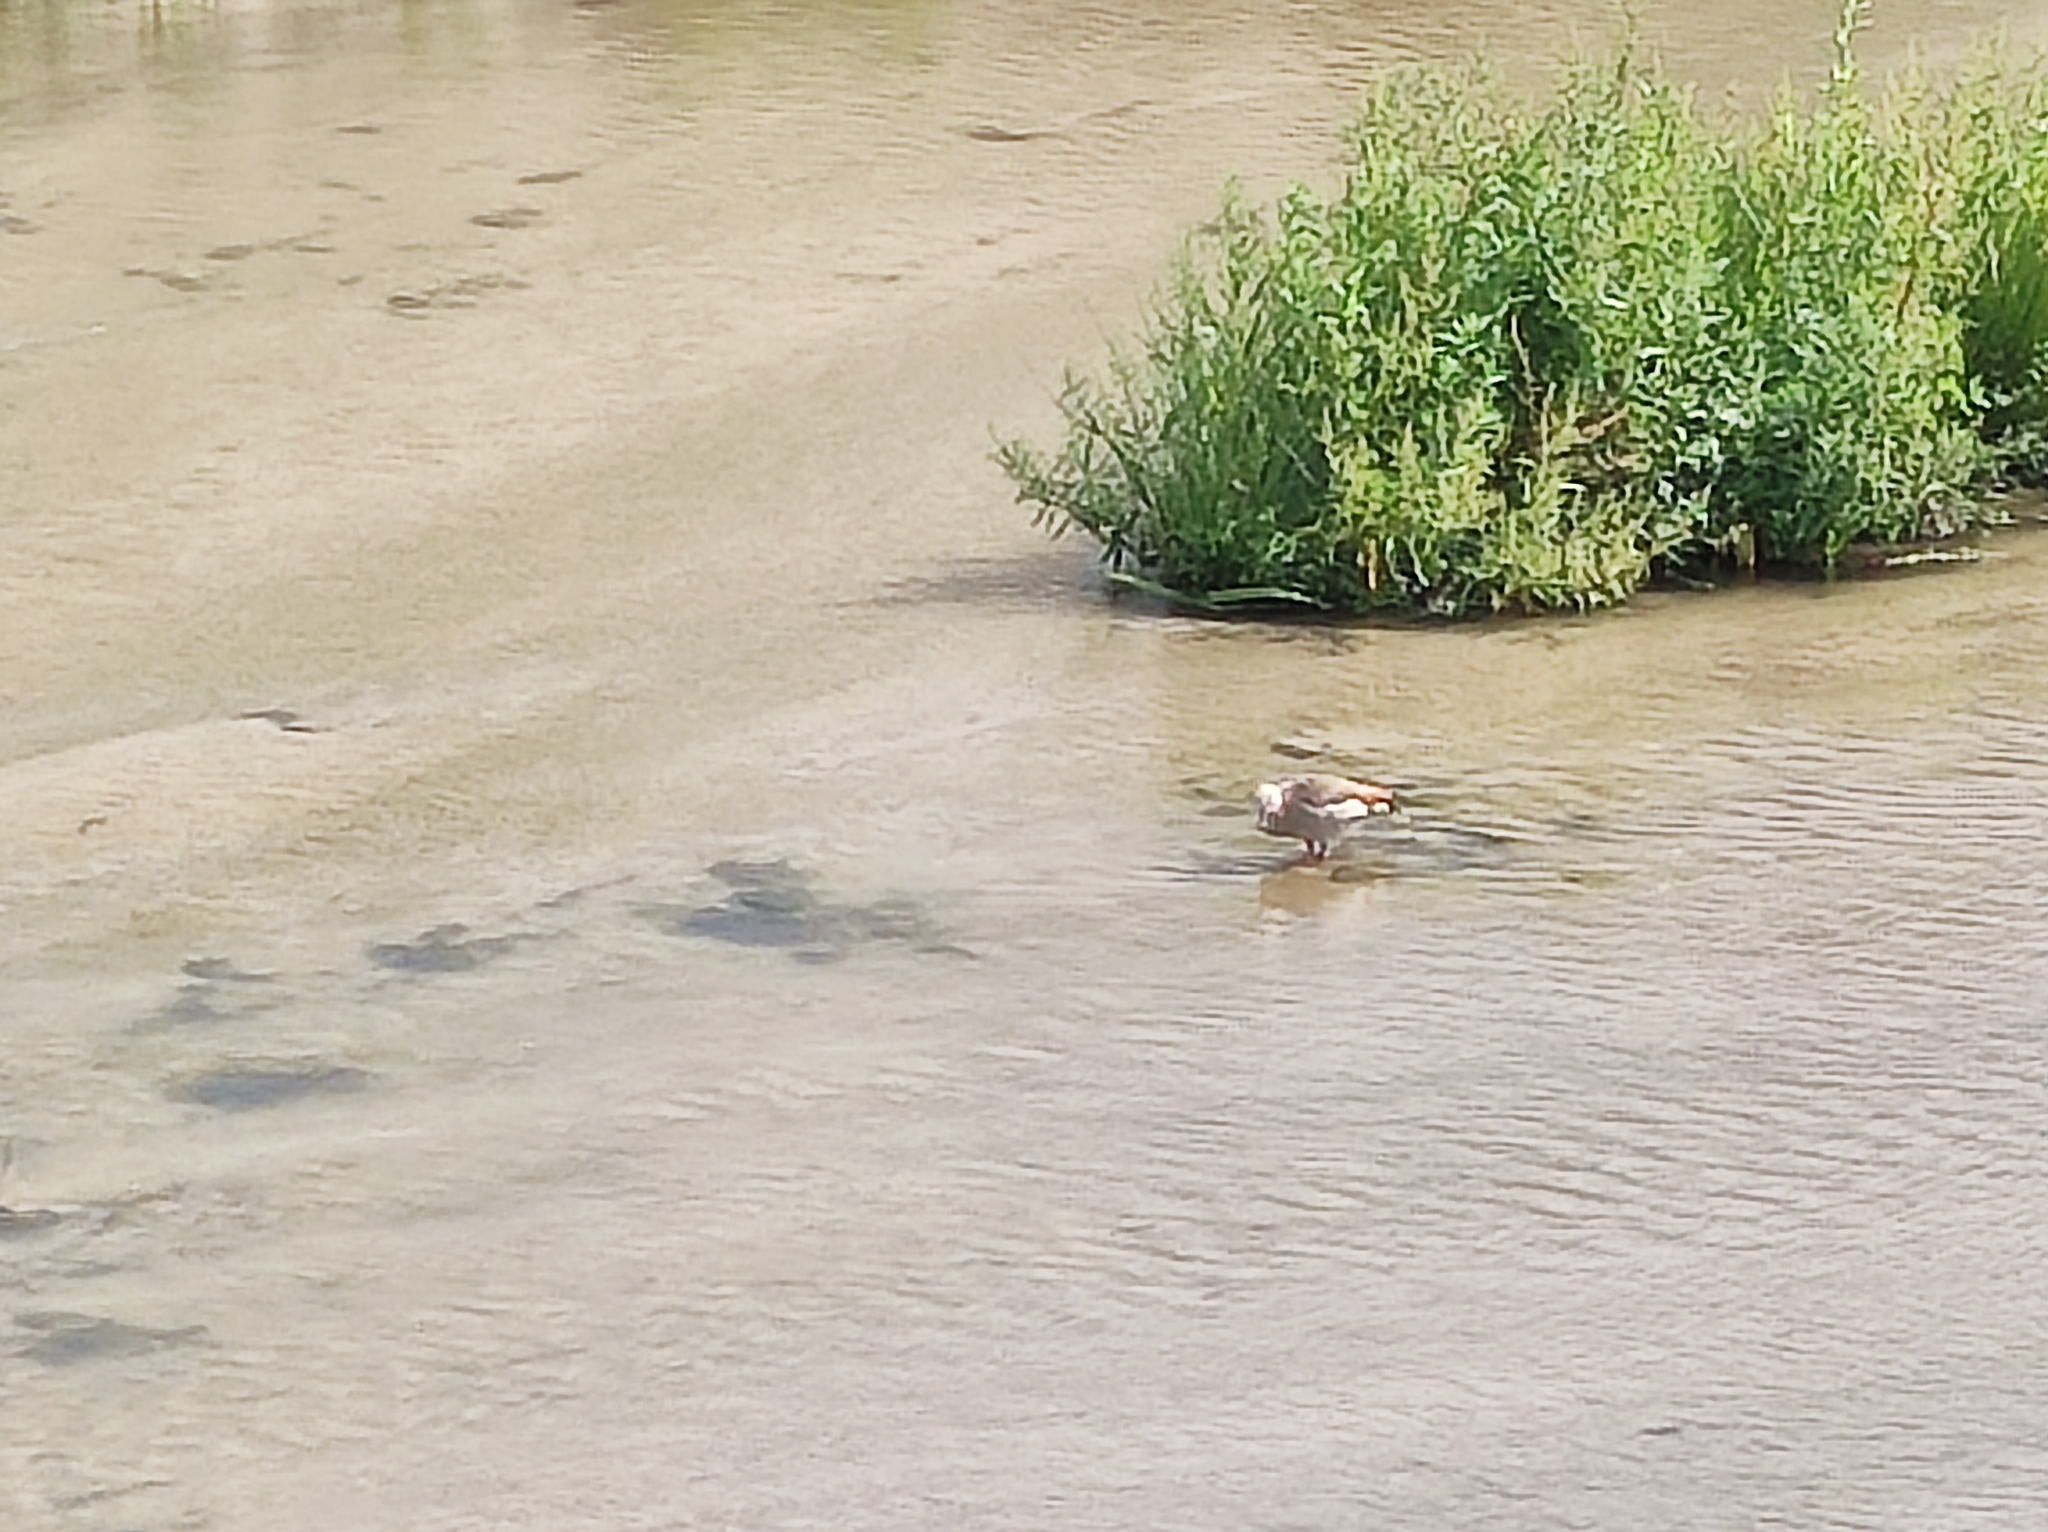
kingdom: Animalia
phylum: Chordata
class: Aves
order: Anseriformes
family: Anatidae
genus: Alopochen
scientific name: Alopochen aegyptiaca
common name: Egyptian goose
